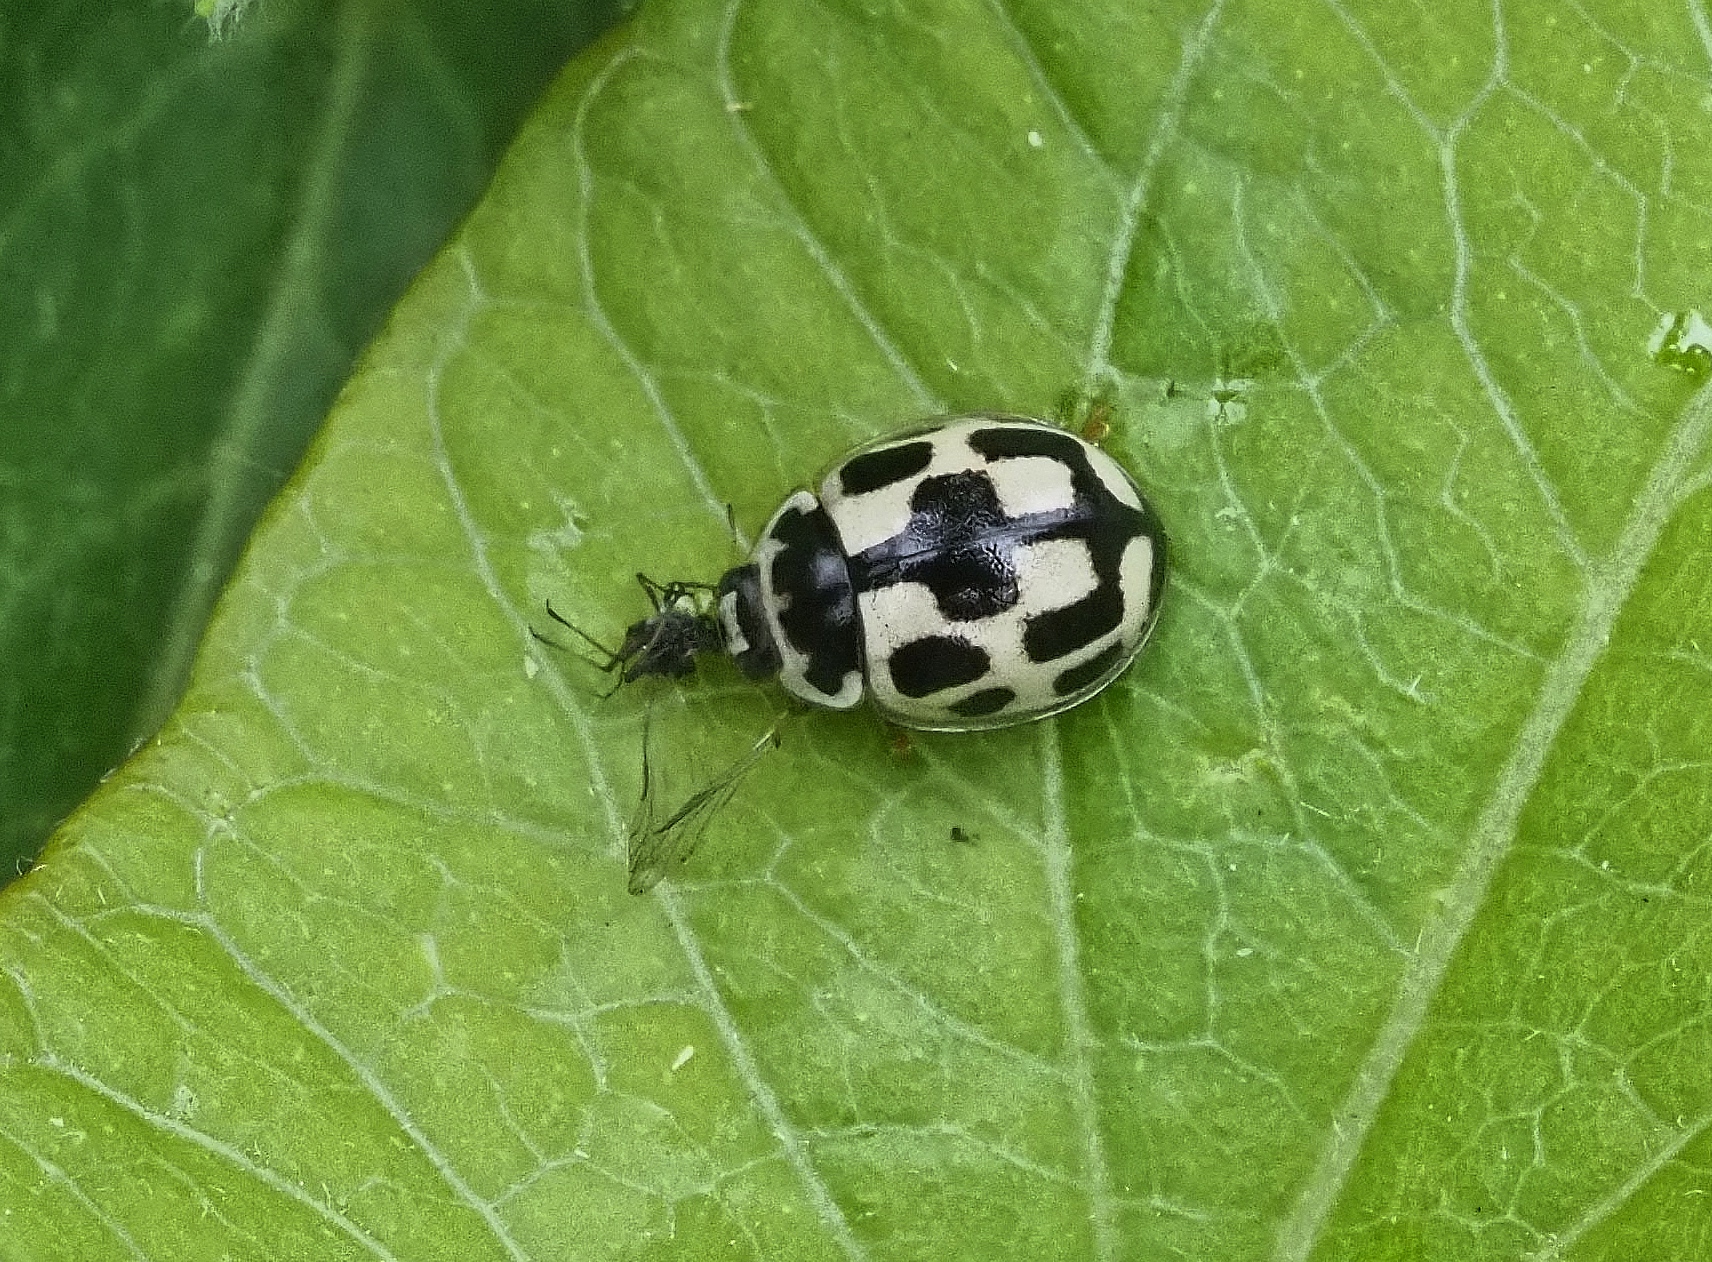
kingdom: Animalia
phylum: Arthropoda
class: Insecta
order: Coleoptera
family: Coccinellidae
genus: Propylaea
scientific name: Propylaea quatuordecimpunctata
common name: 14-spotted ladybird beetle
